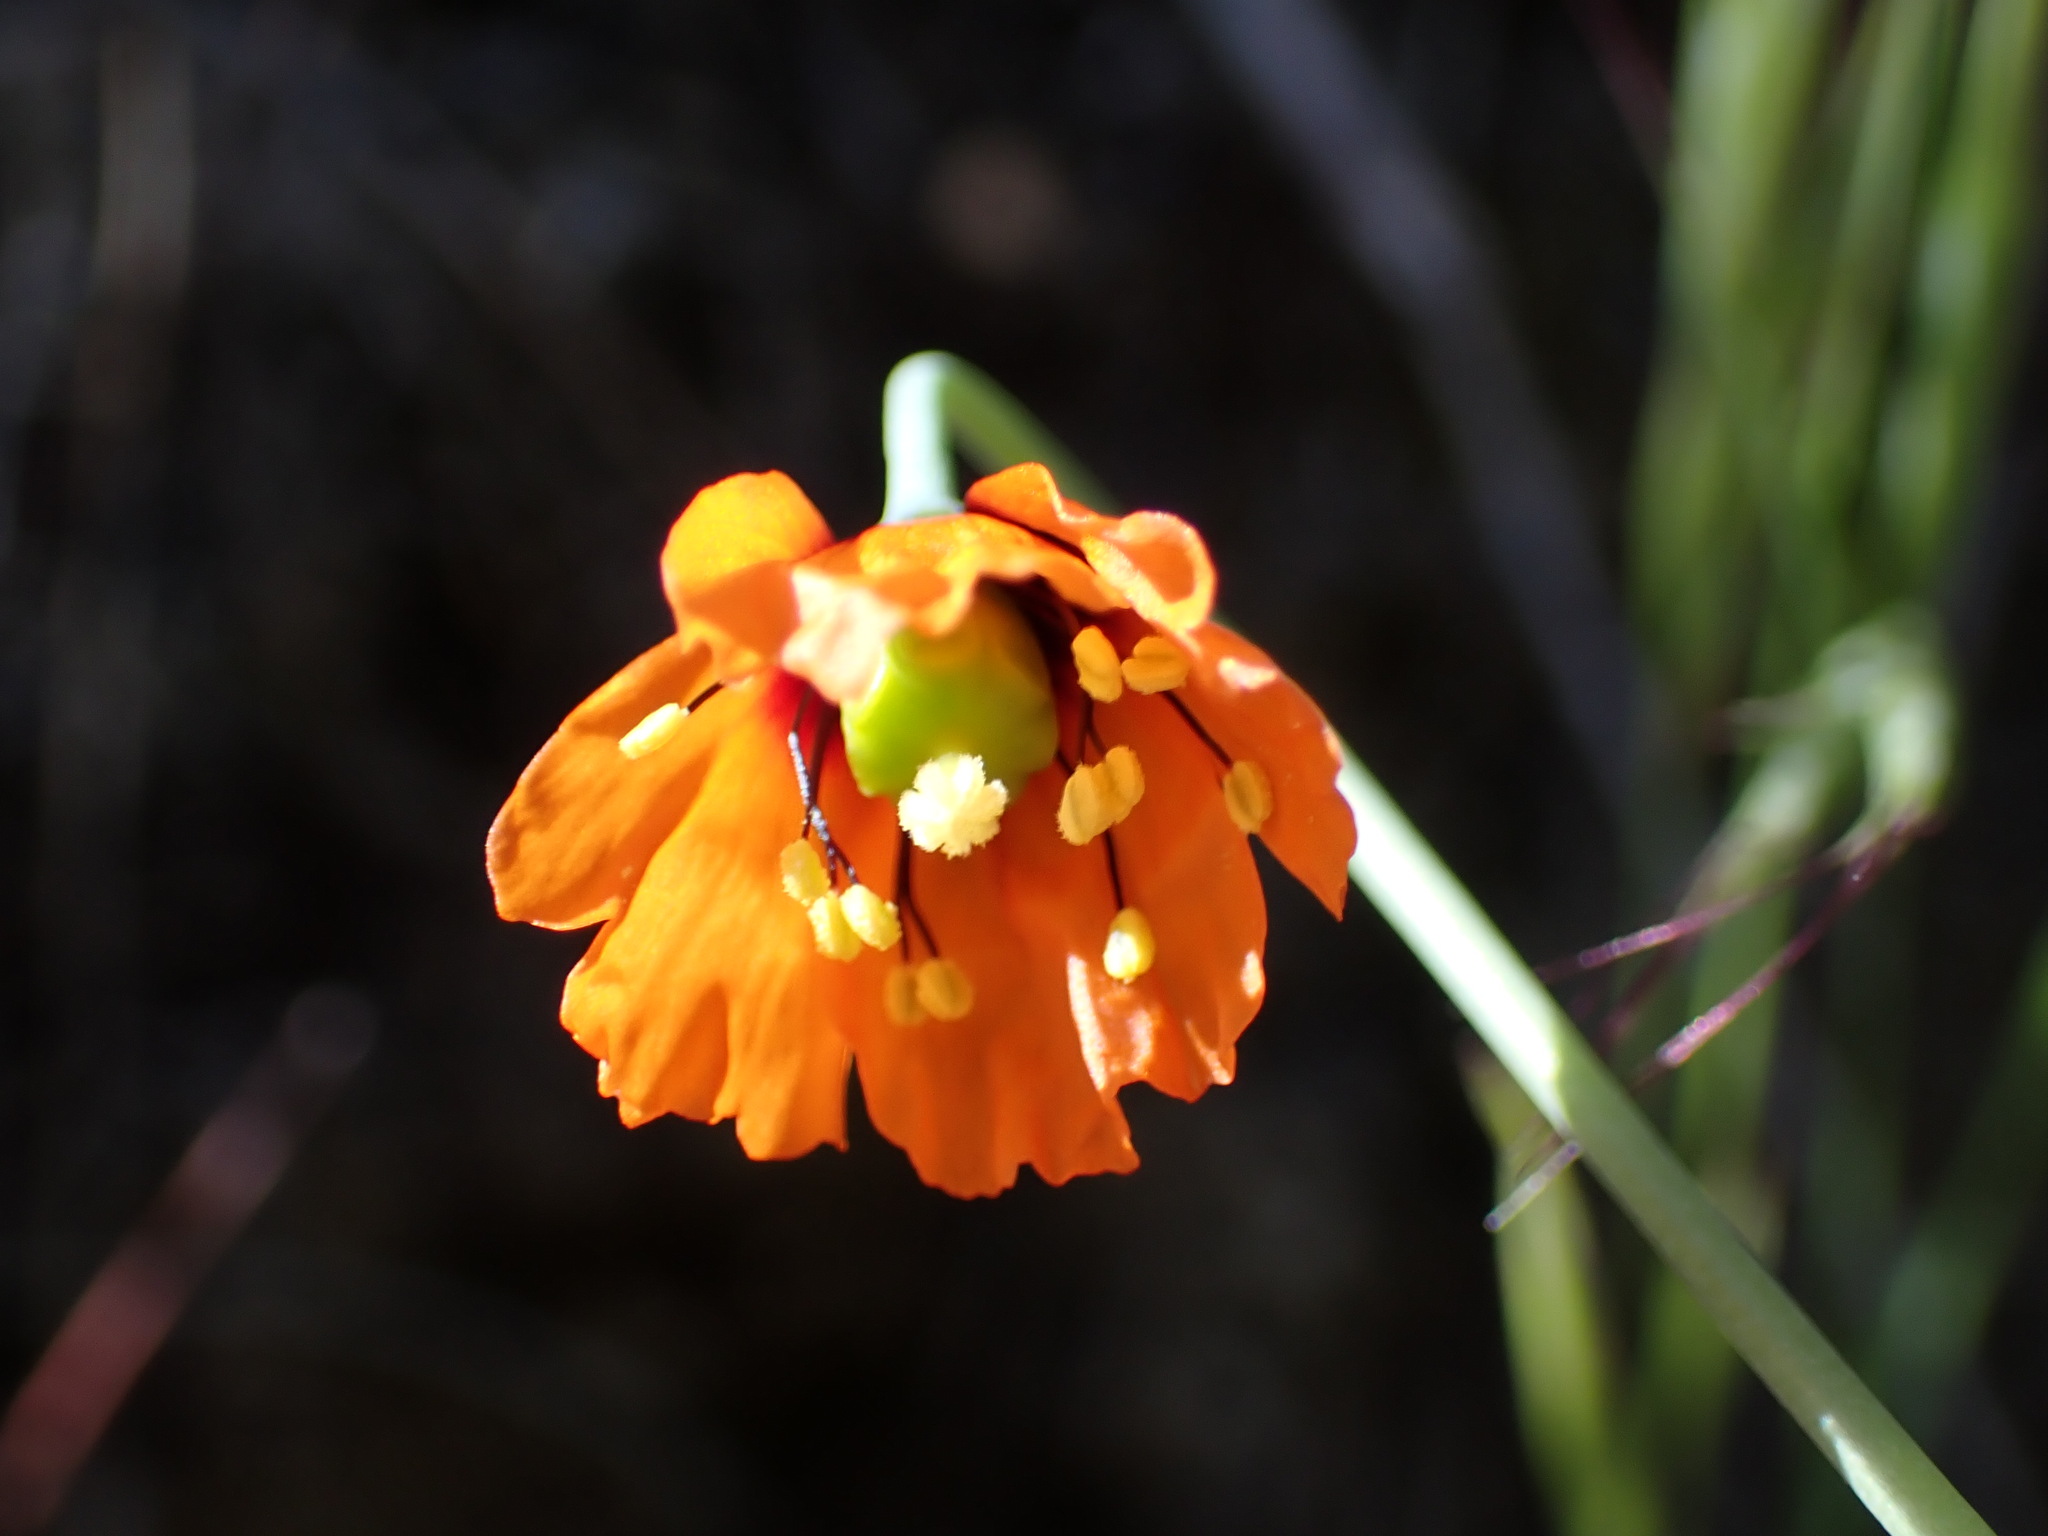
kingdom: Plantae
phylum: Tracheophyta
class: Magnoliopsida
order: Ranunculales
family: Papaveraceae
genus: Stylomecon
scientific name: Stylomecon heterophylla
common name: Flaming-poppy
